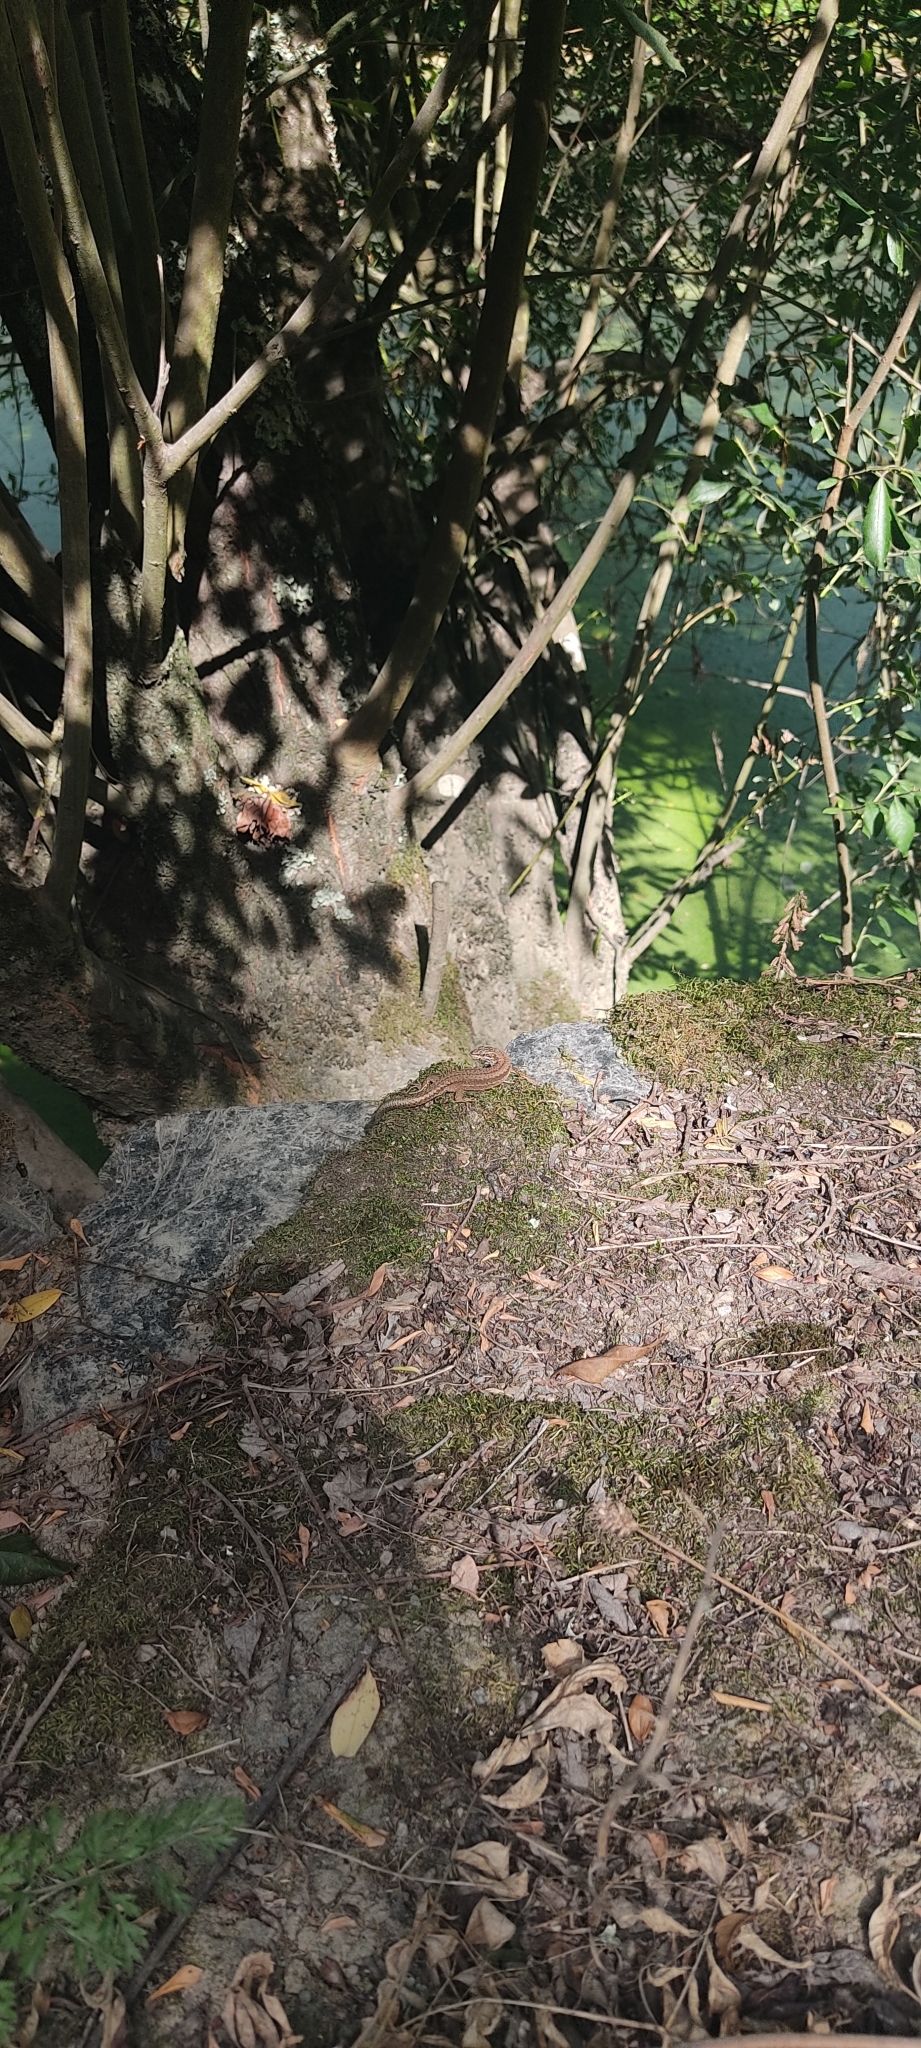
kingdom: Animalia
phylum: Chordata
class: Squamata
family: Lacertidae
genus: Podarcis
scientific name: Podarcis muralis
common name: Common wall lizard
